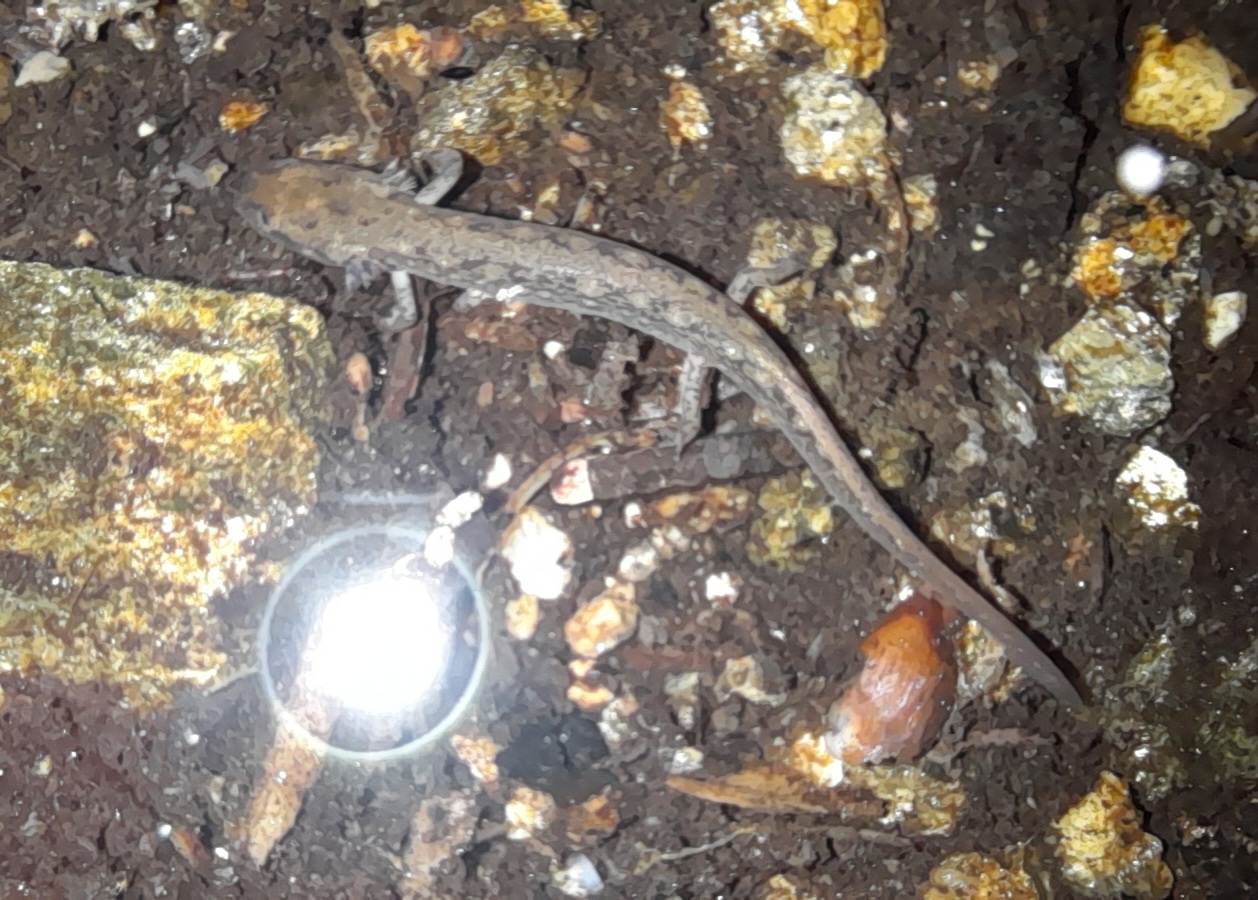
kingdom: Animalia
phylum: Chordata
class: Amphibia
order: Caudata
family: Plethodontidae
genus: Eurycea
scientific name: Eurycea bislineata
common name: Northern two-lined salamander
